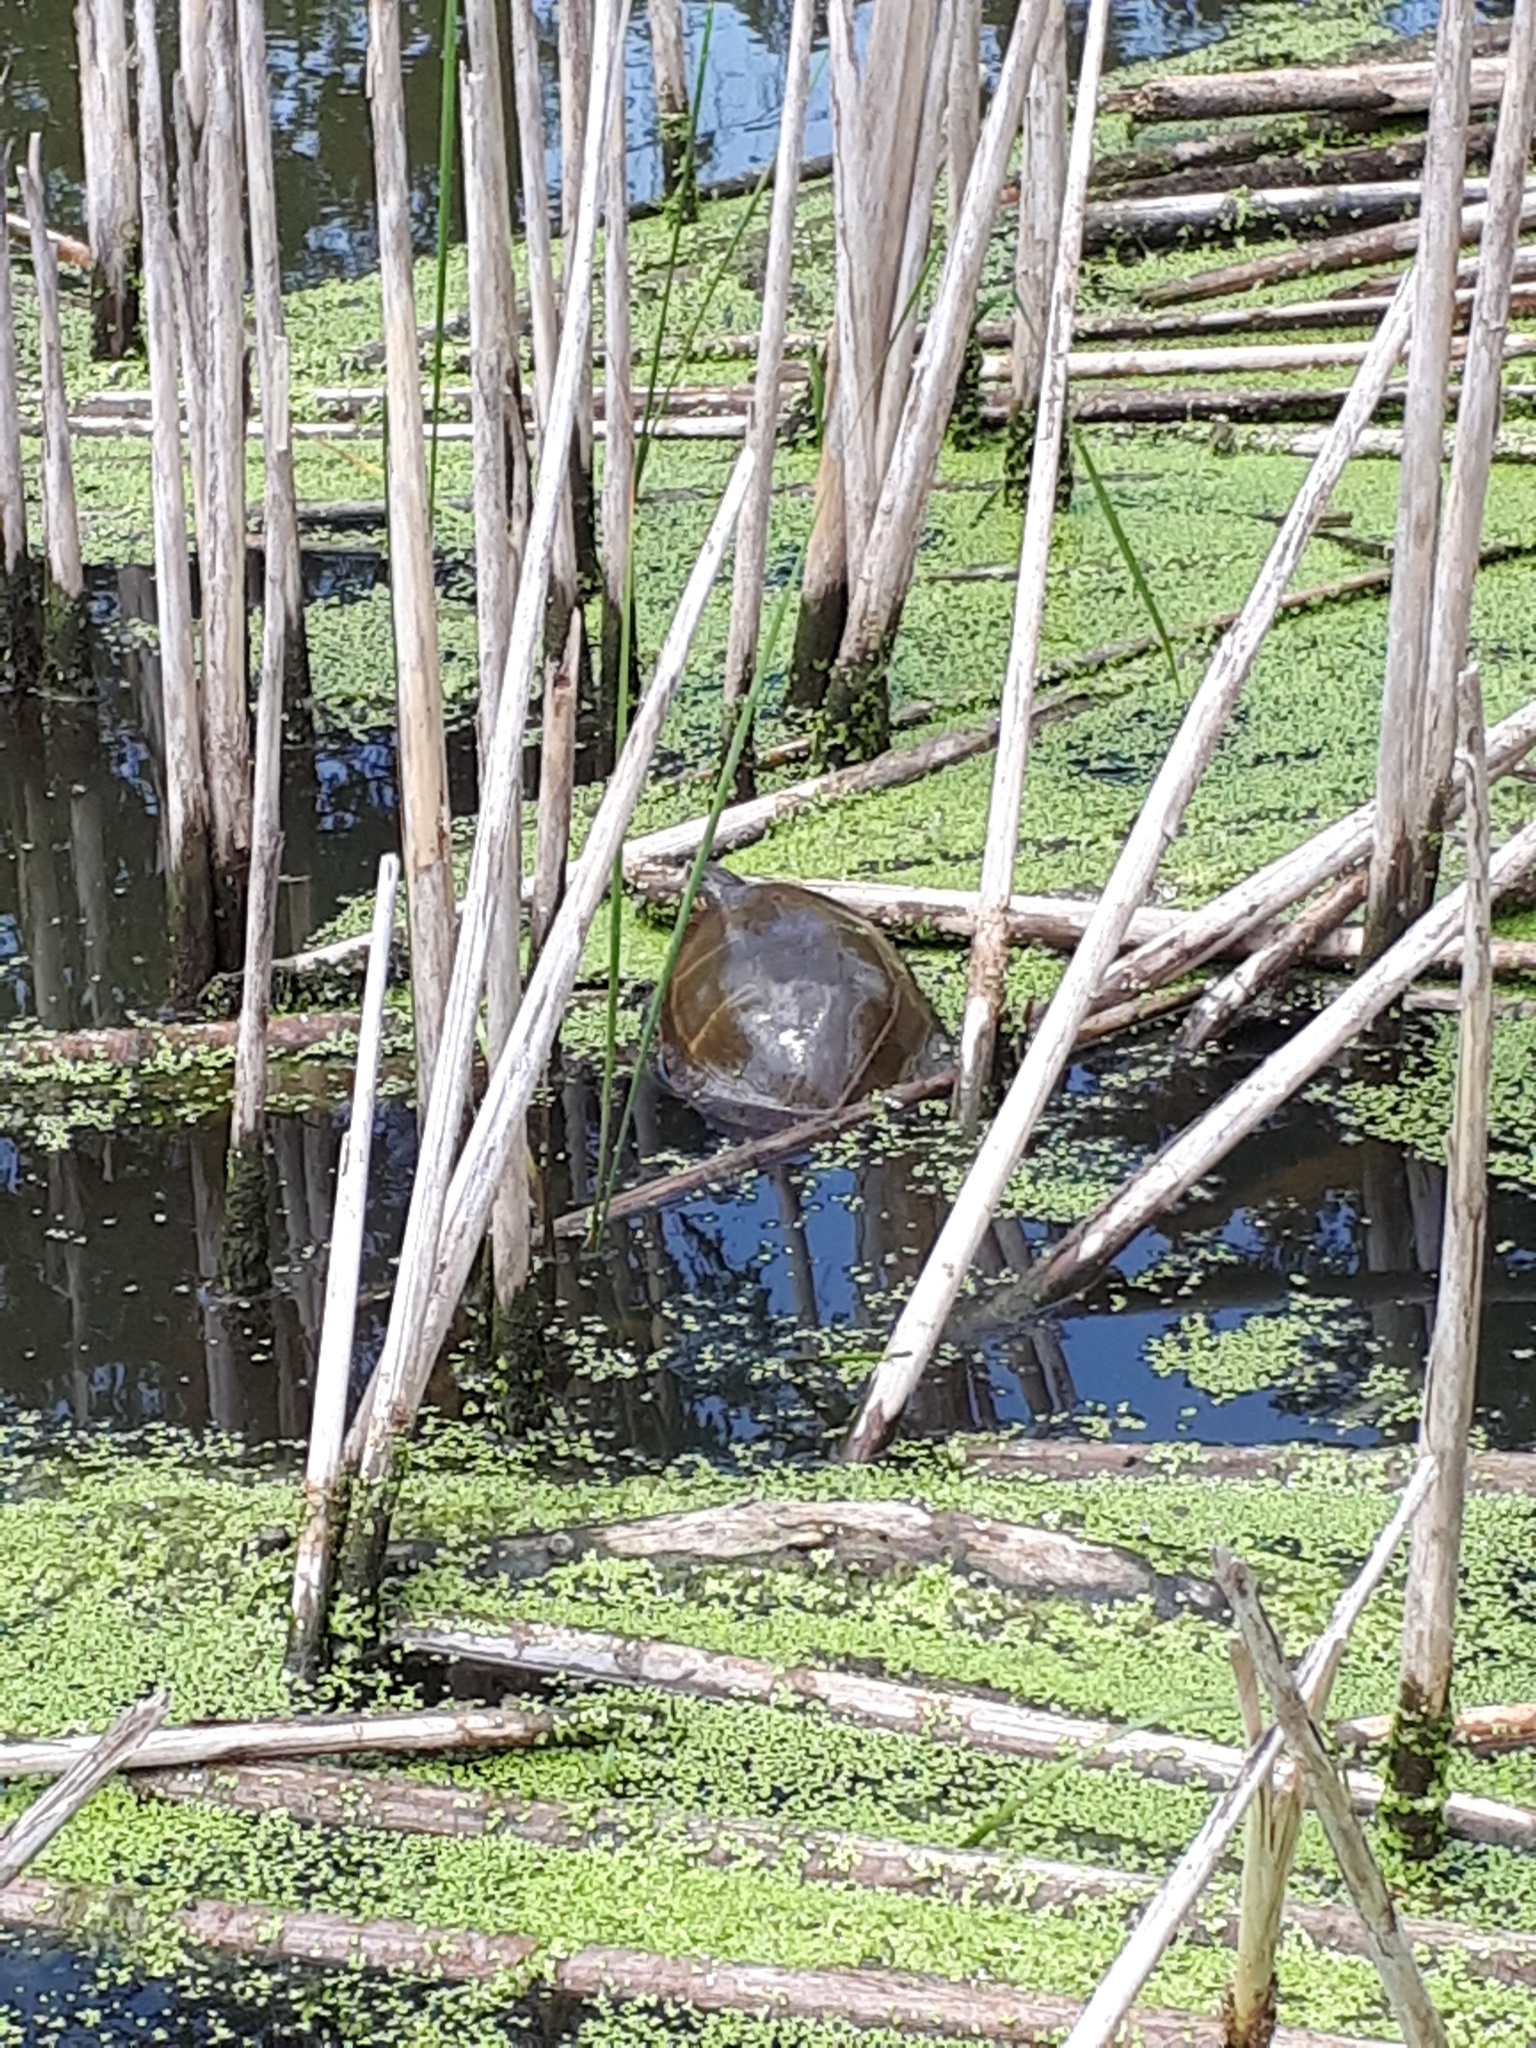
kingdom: Animalia
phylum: Chordata
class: Testudines
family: Emydidae
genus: Chrysemys
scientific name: Chrysemys picta
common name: Painted turtle
